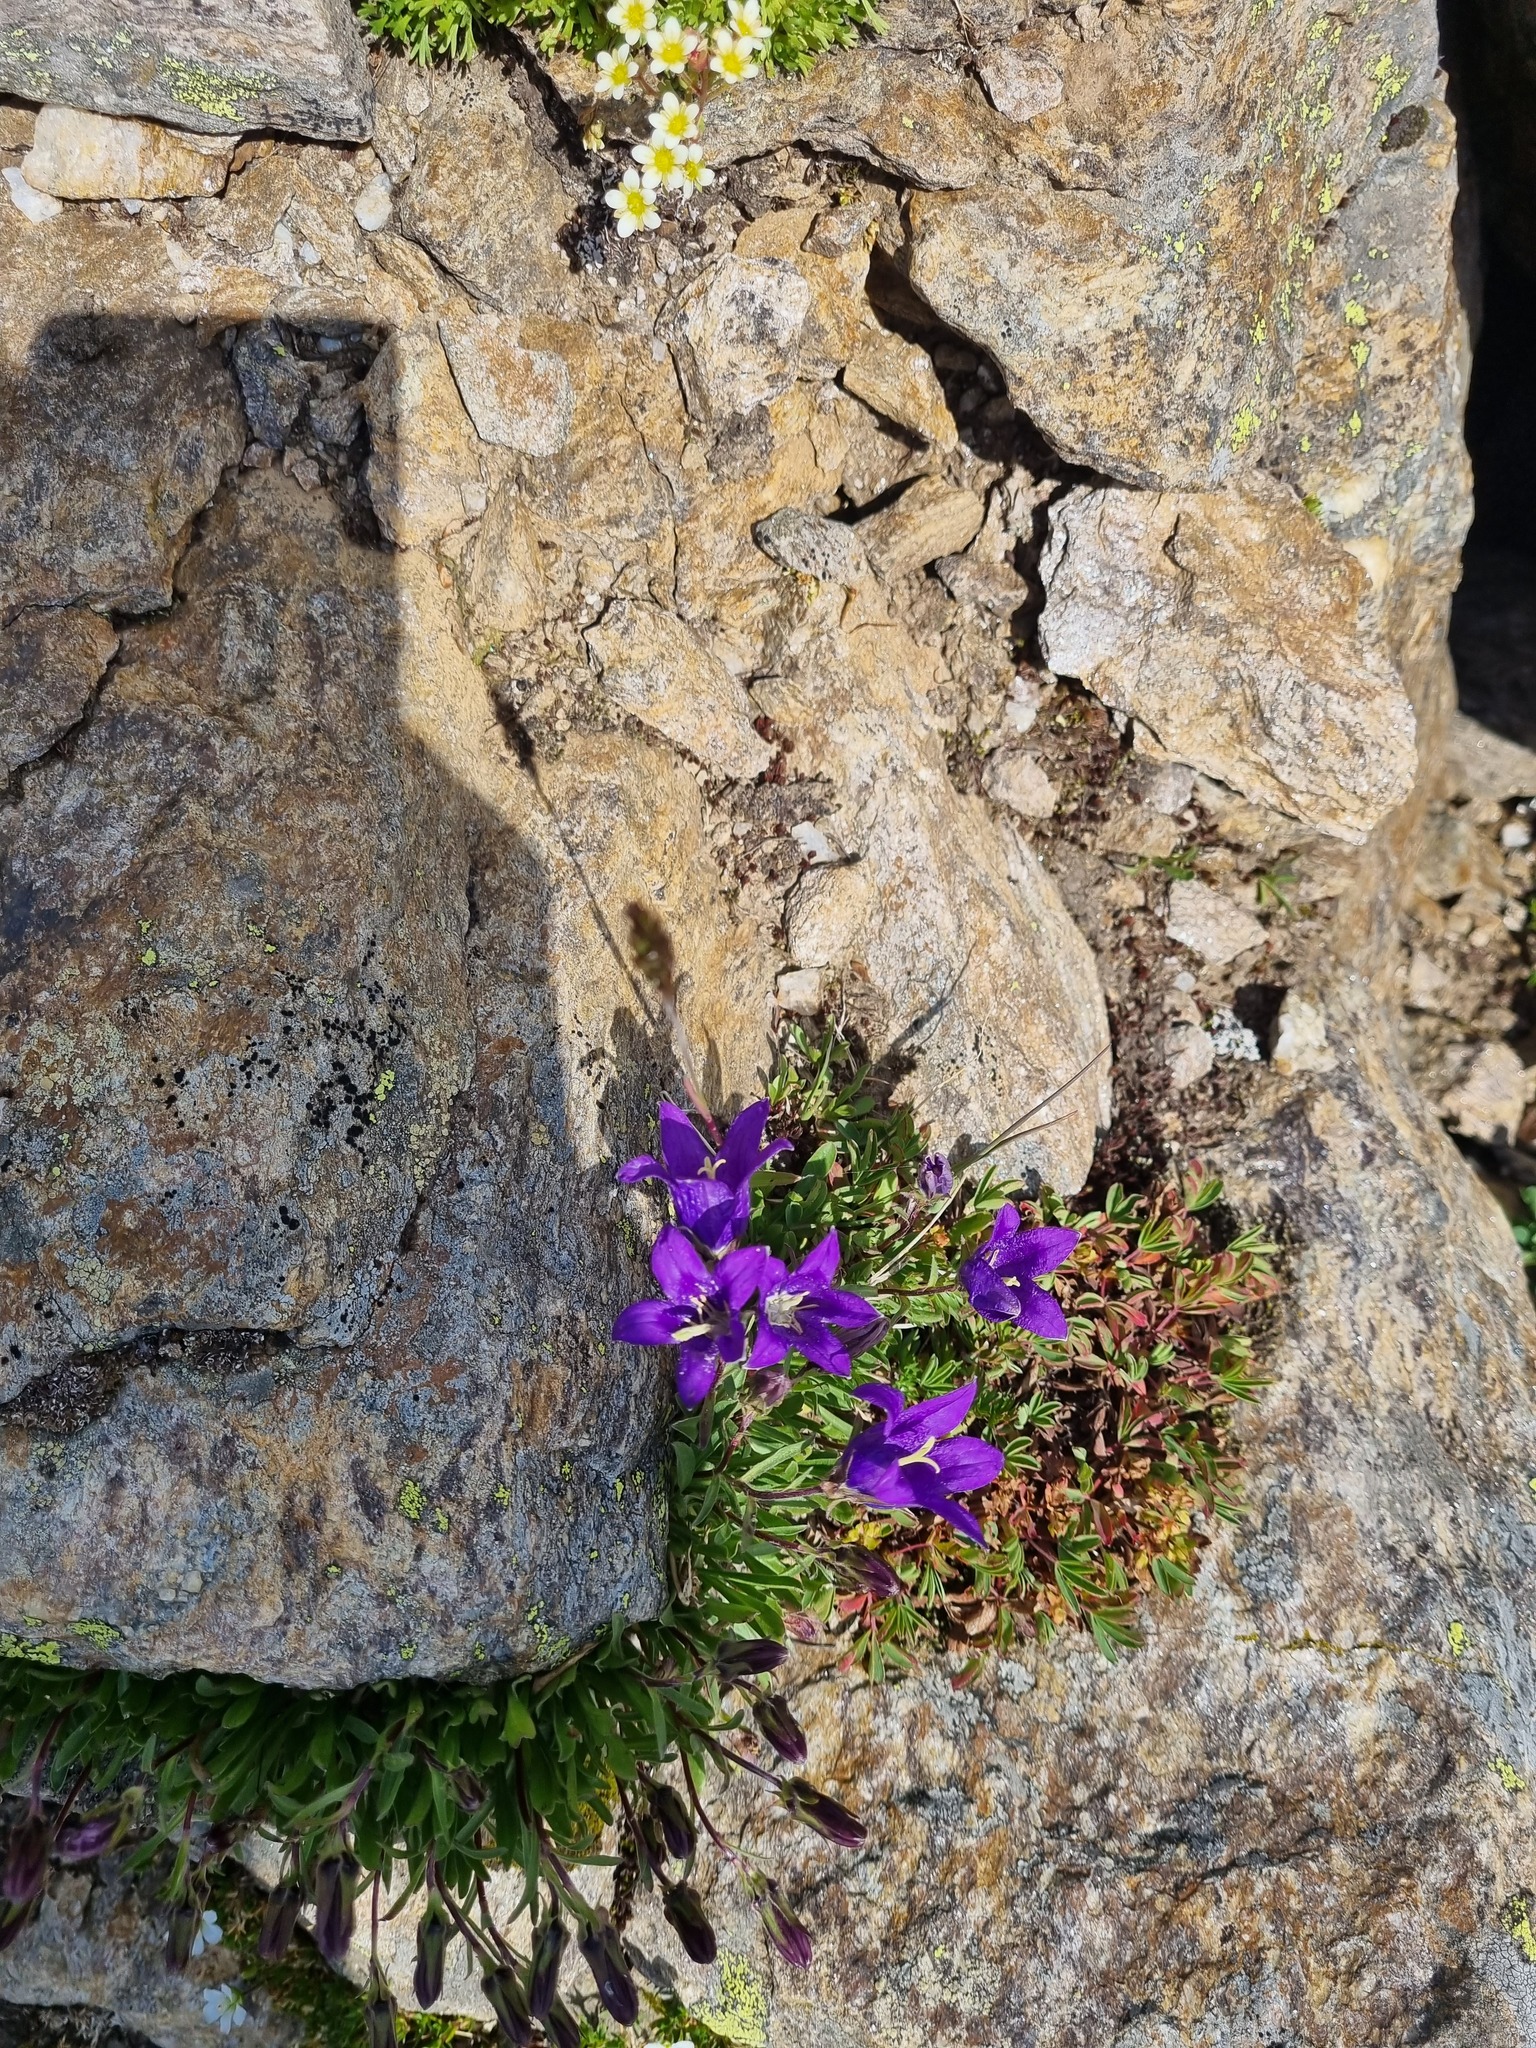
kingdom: Plantae
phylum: Tracheophyta
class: Magnoliopsida
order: Asterales
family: Campanulaceae
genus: Campanula
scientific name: Campanula saxifraga
